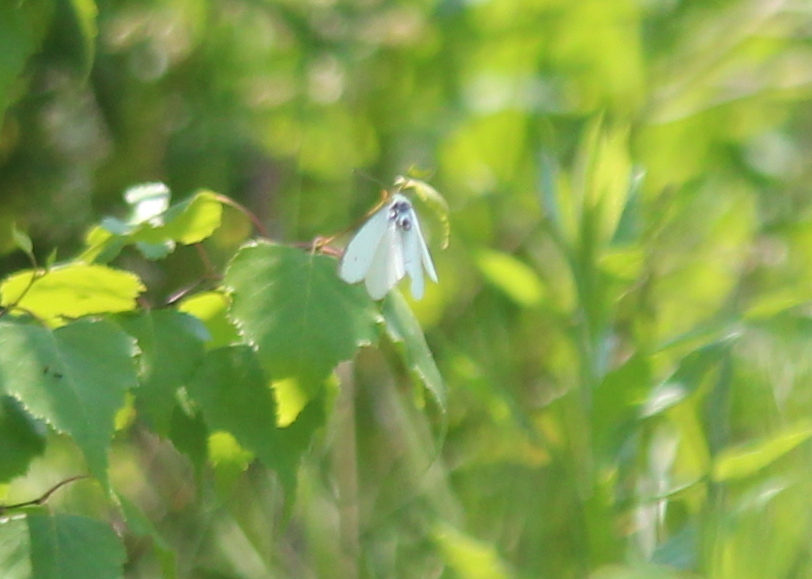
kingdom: Animalia
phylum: Arthropoda
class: Insecta
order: Lepidoptera
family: Pieridae
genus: Pieris
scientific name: Pieris rapae
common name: Small white
